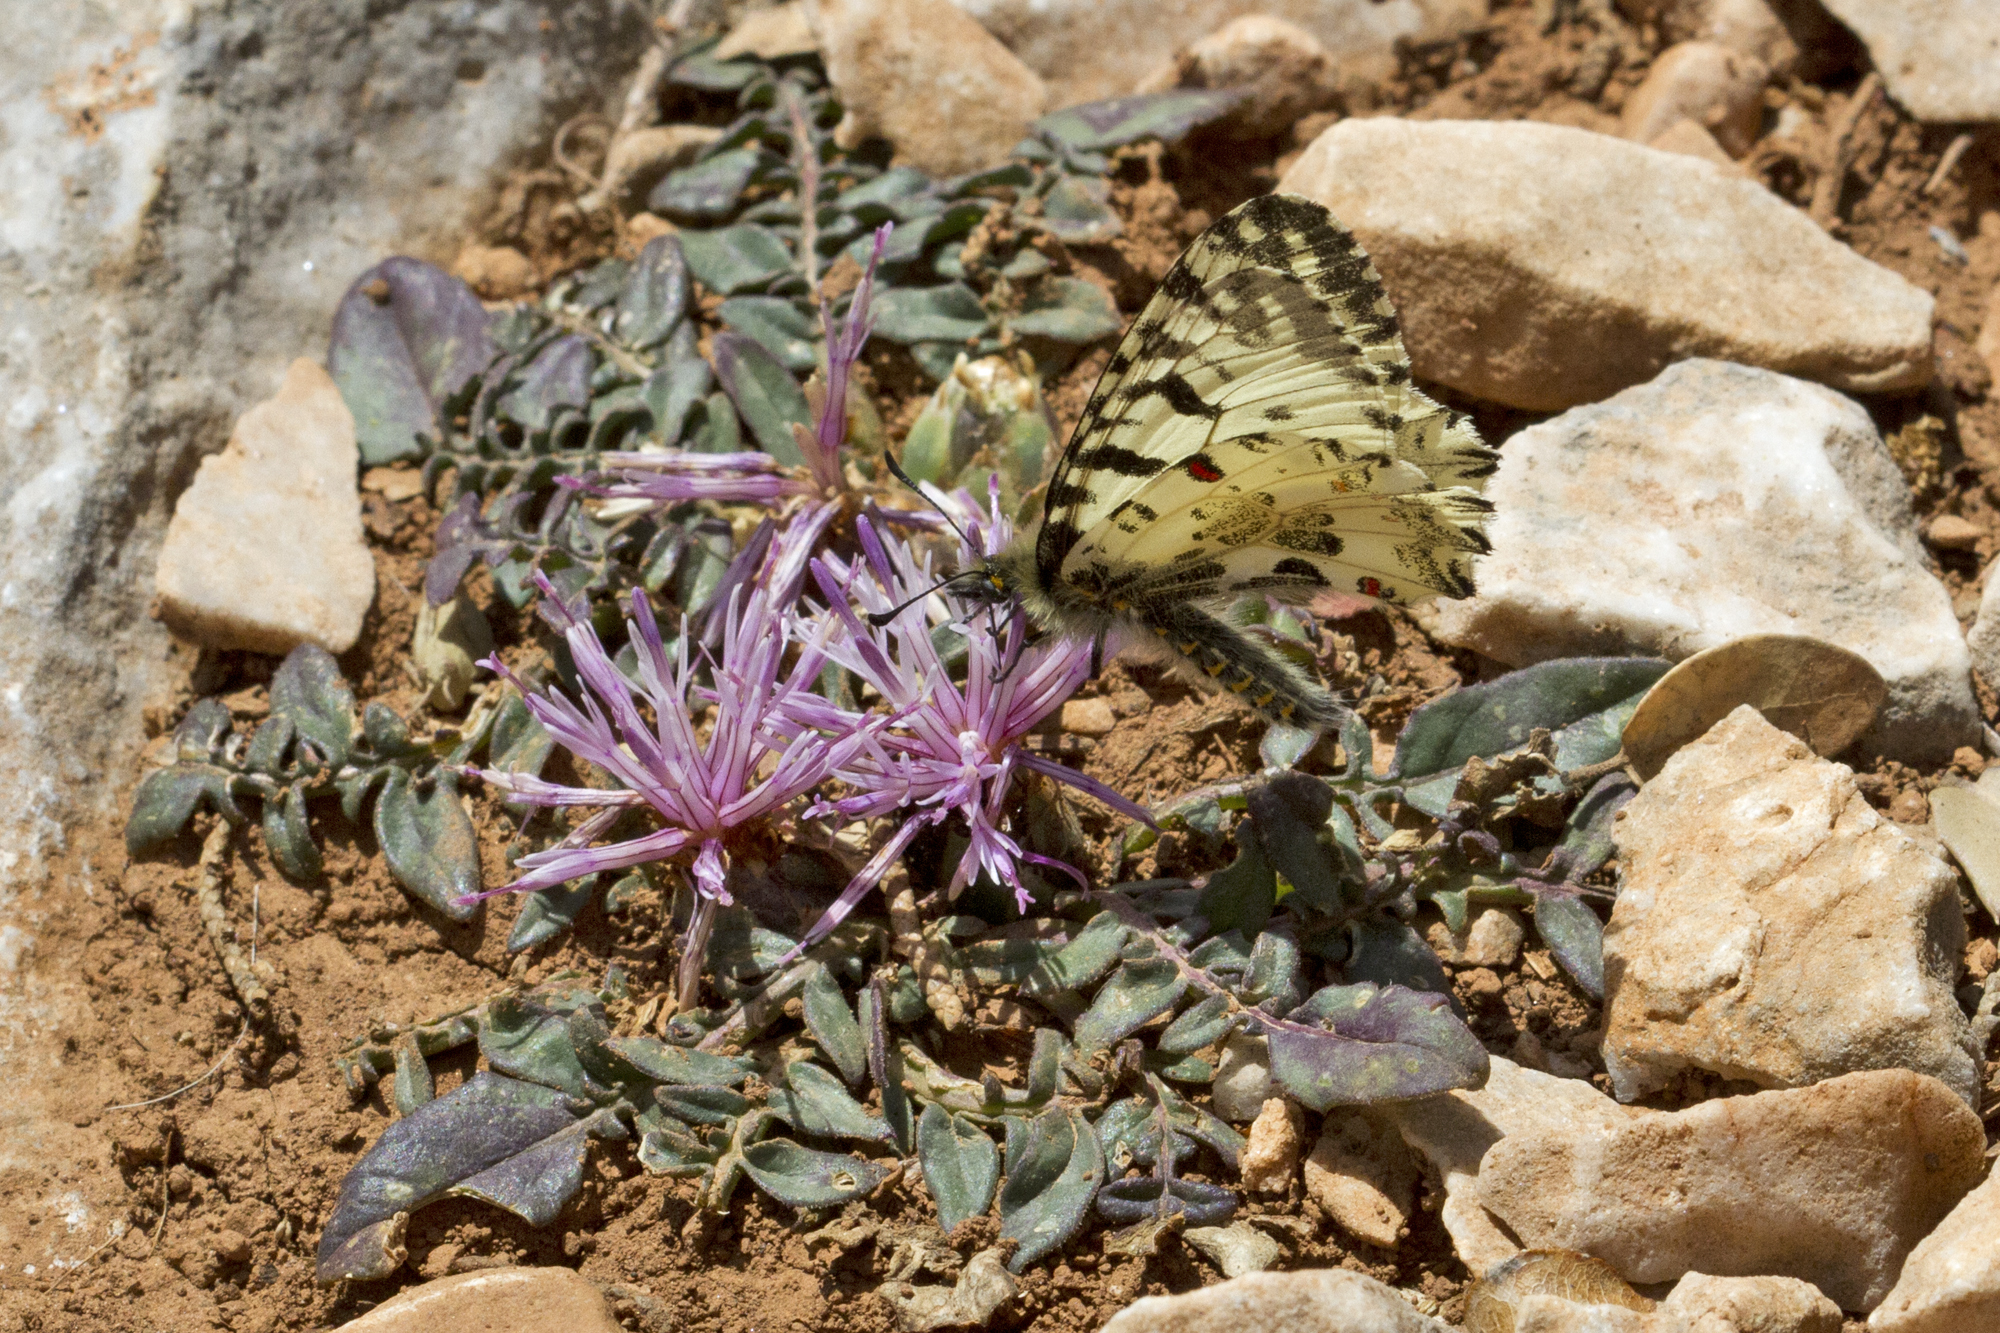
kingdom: Plantae
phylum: Tracheophyta
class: Magnoliopsida
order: Asterales
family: Asteraceae
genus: Centaurea
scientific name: Centaurea raphanina
